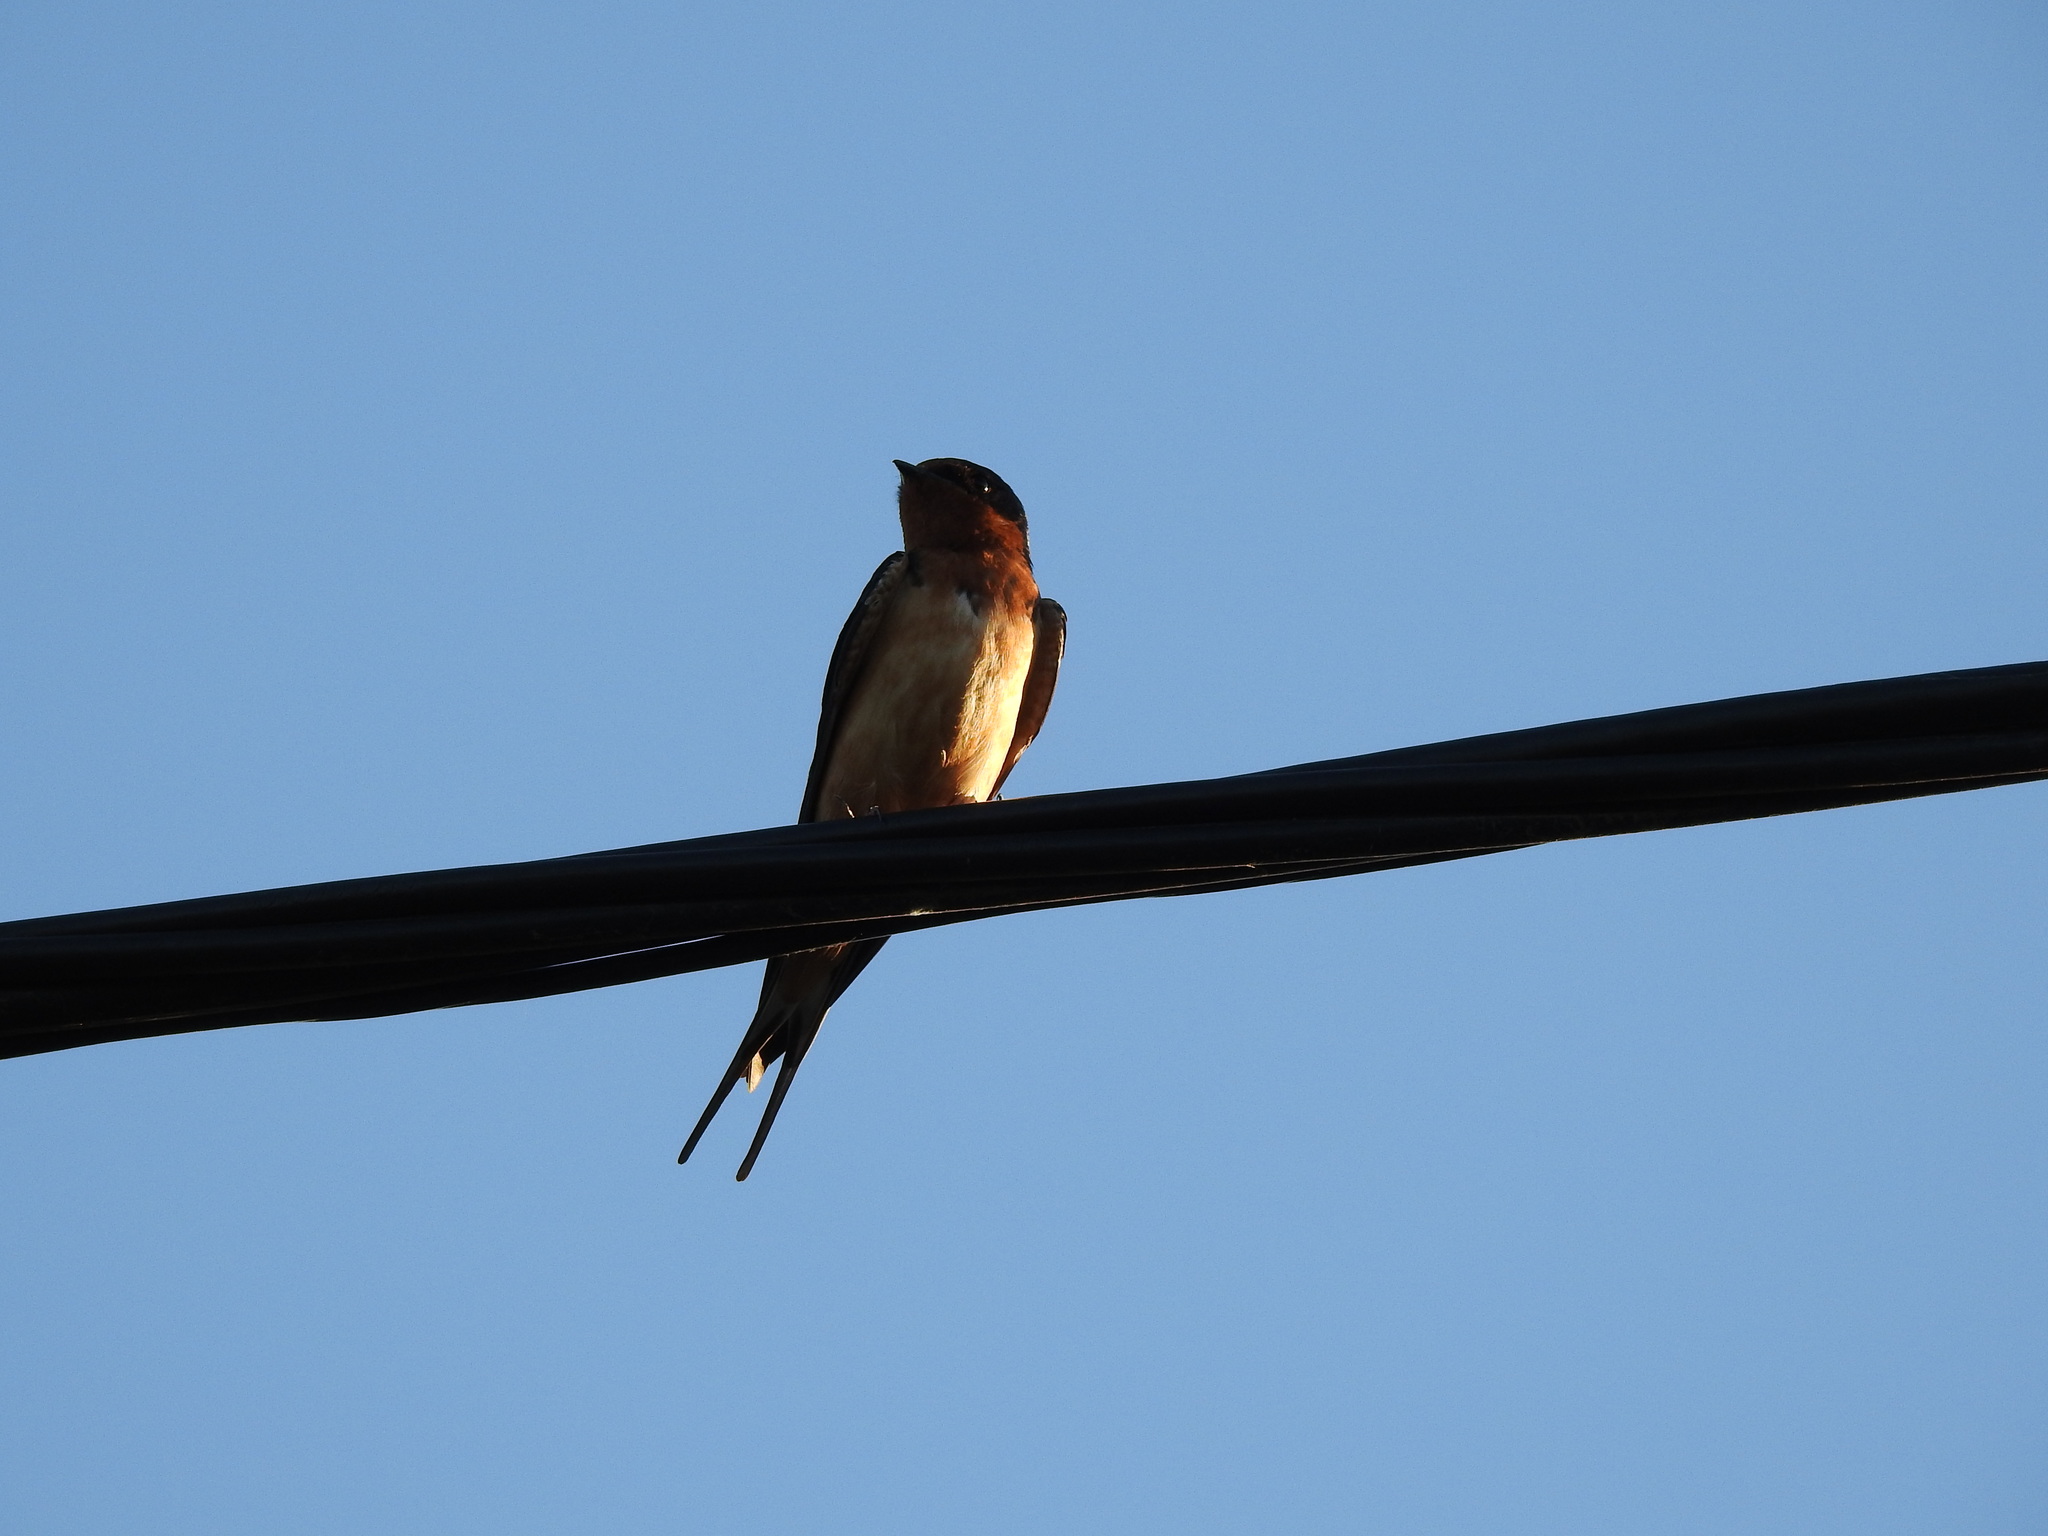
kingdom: Animalia
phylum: Chordata
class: Aves
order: Passeriformes
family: Hirundinidae
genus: Hirundo
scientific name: Hirundo rustica
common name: Barn swallow
